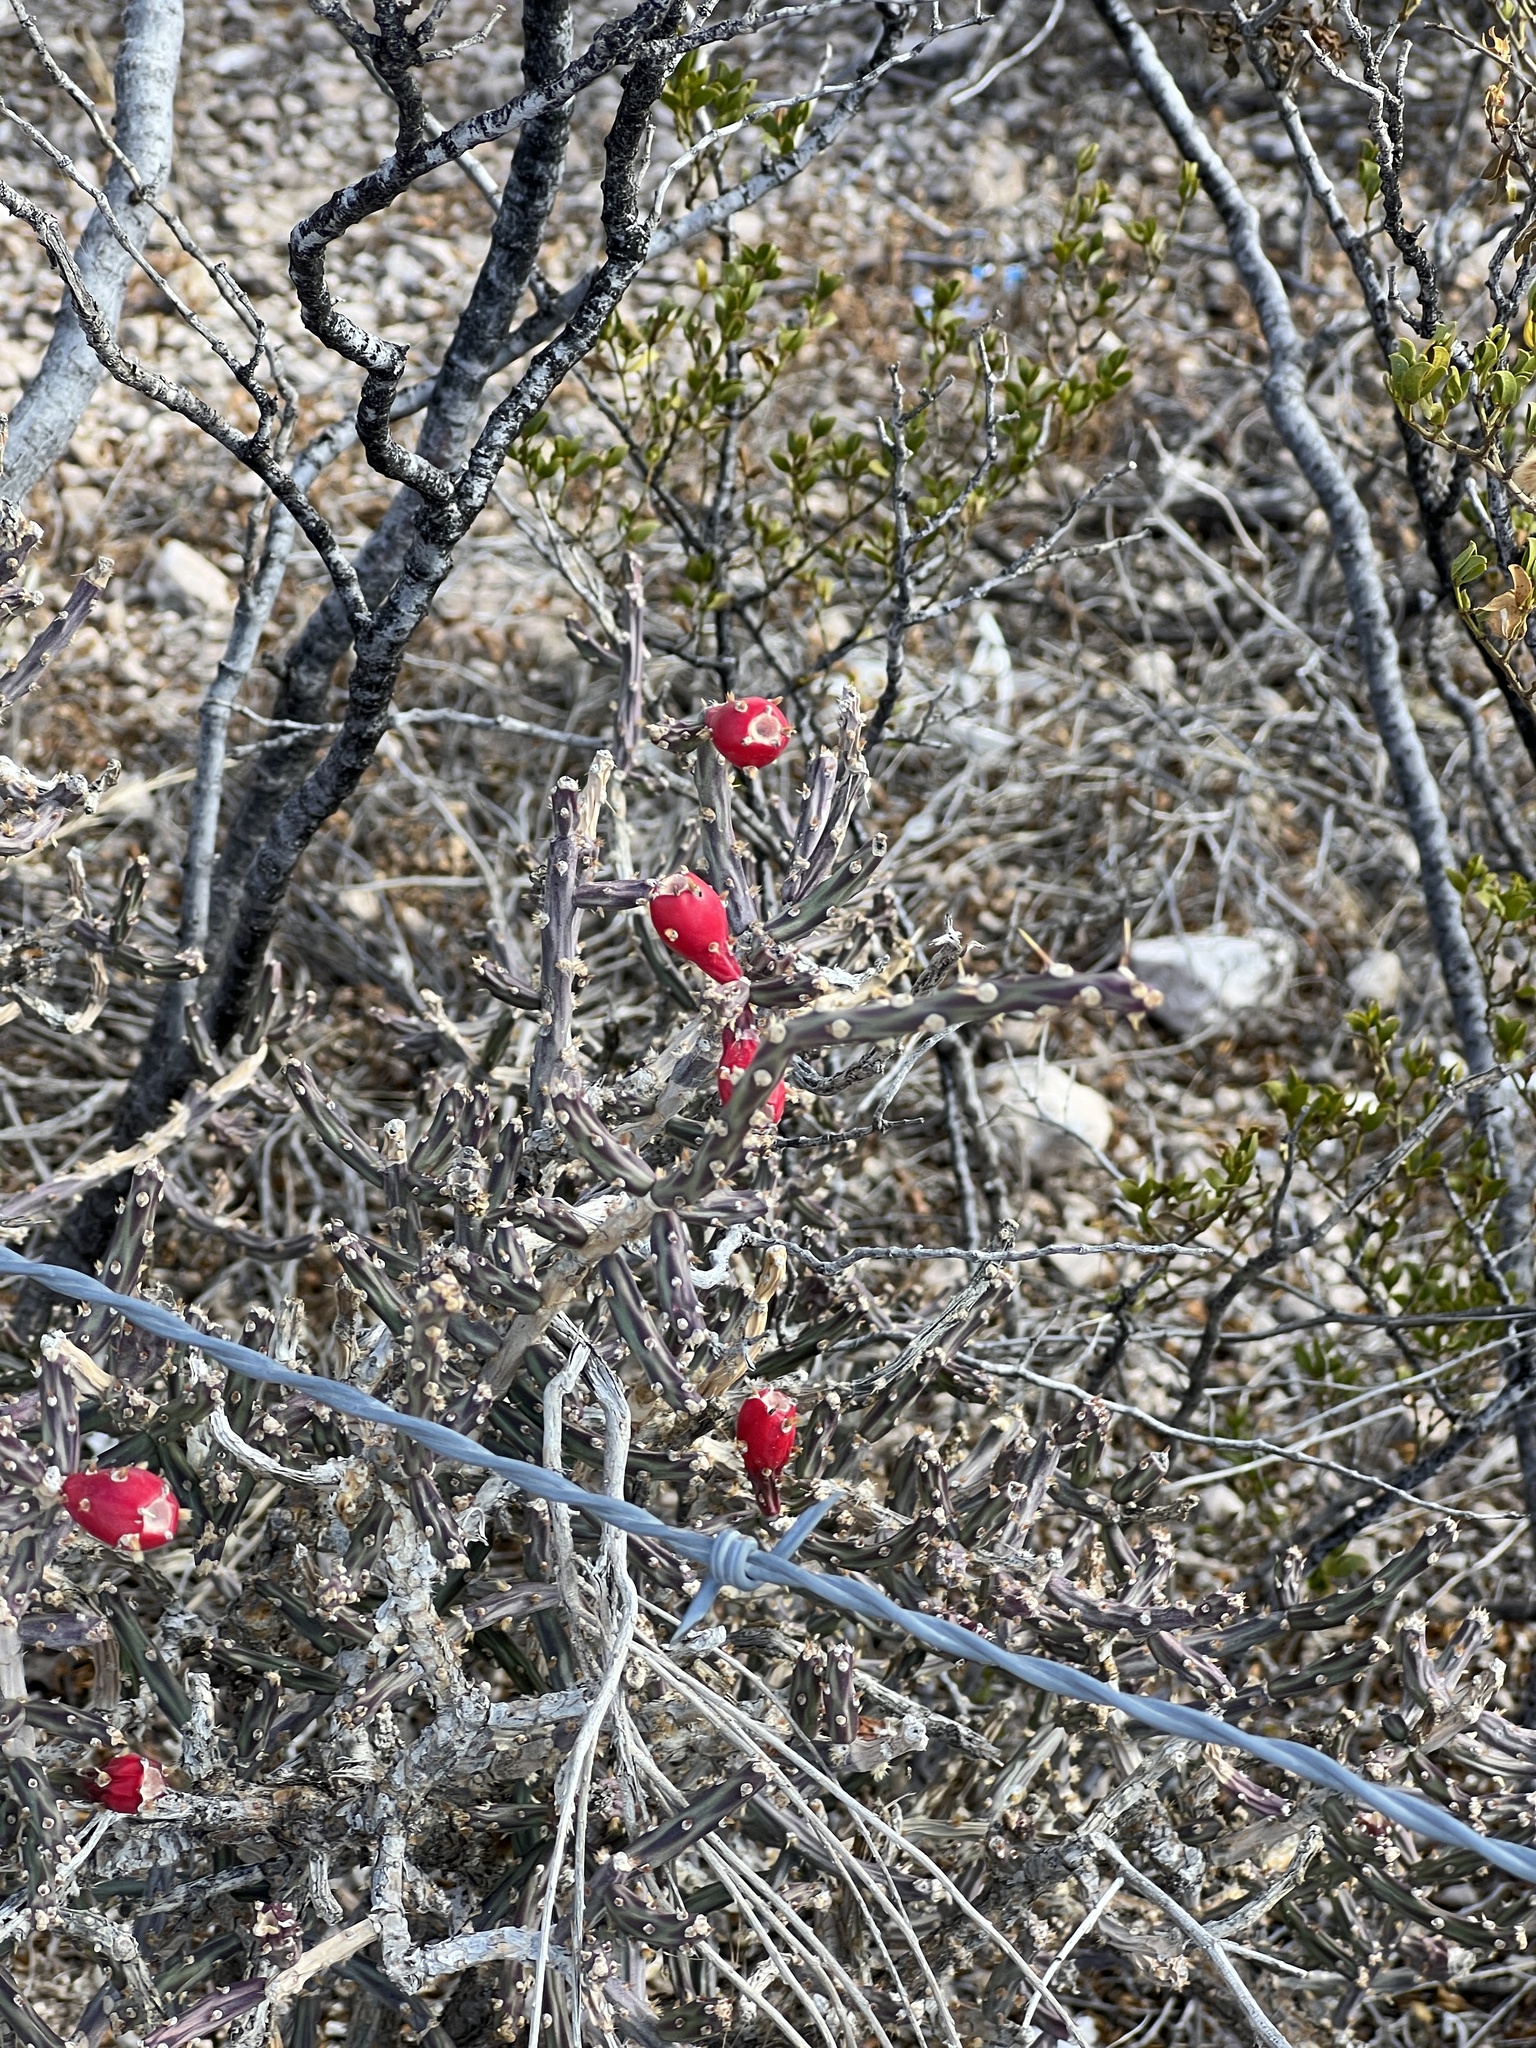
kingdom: Plantae
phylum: Tracheophyta
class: Magnoliopsida
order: Caryophyllales
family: Cactaceae
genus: Cylindropuntia
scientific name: Cylindropuntia leptocaulis
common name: Christmas cactus
